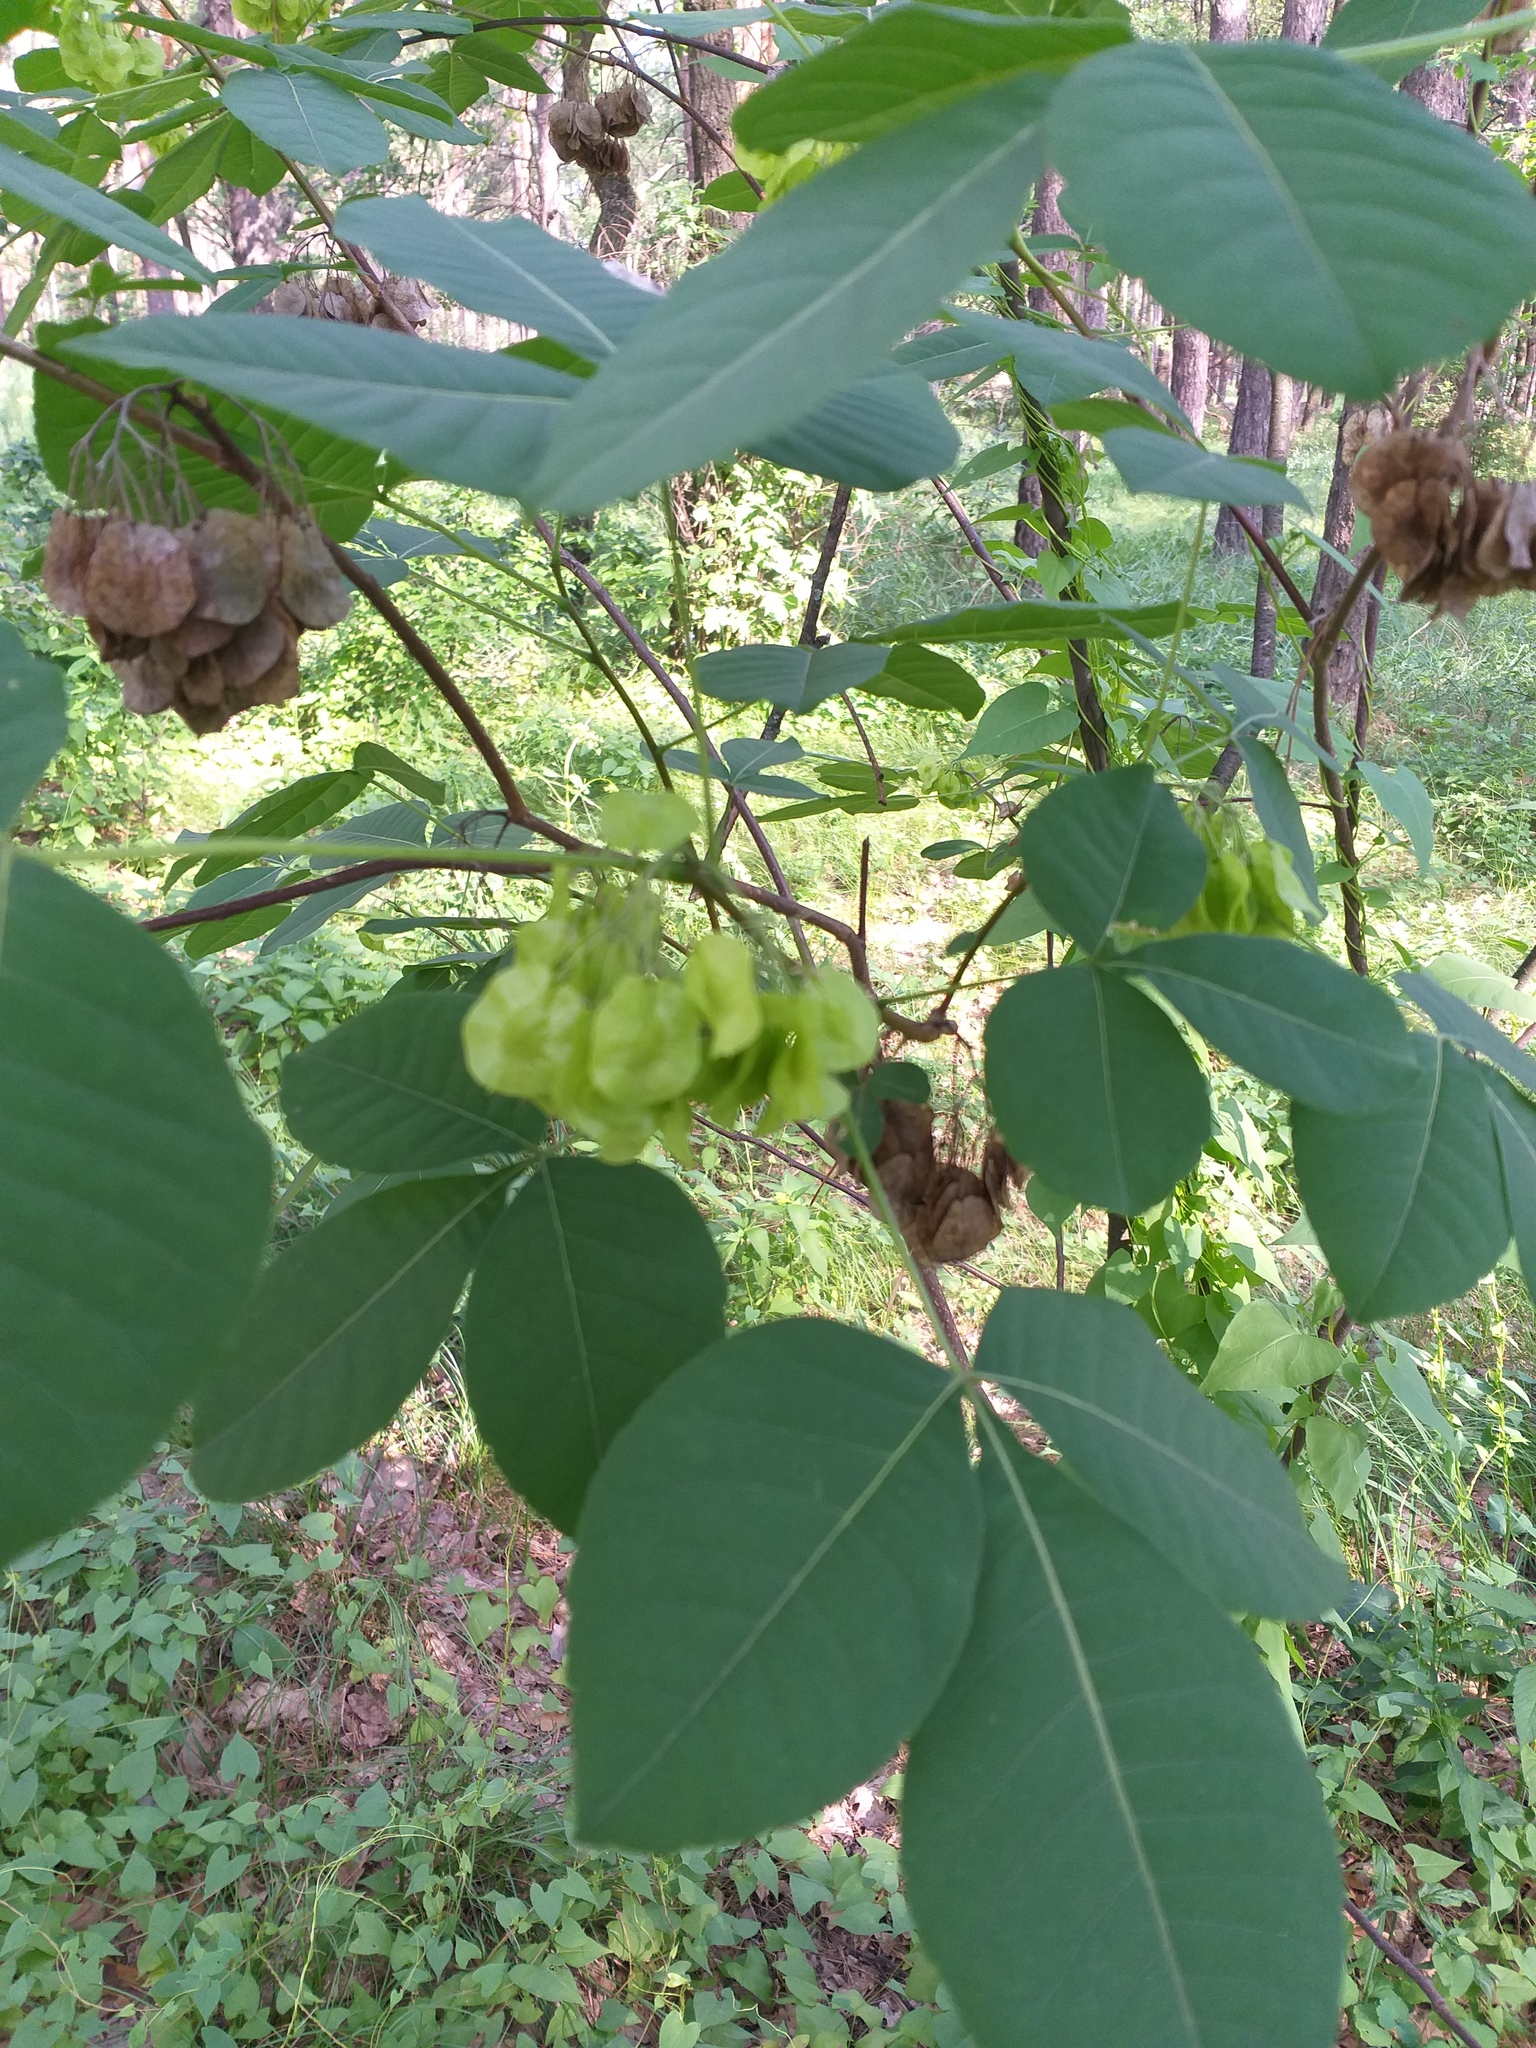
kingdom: Plantae
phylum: Tracheophyta
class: Magnoliopsida
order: Sapindales
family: Rutaceae
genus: Ptelea
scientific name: Ptelea trifoliata
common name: Common hop-tree
